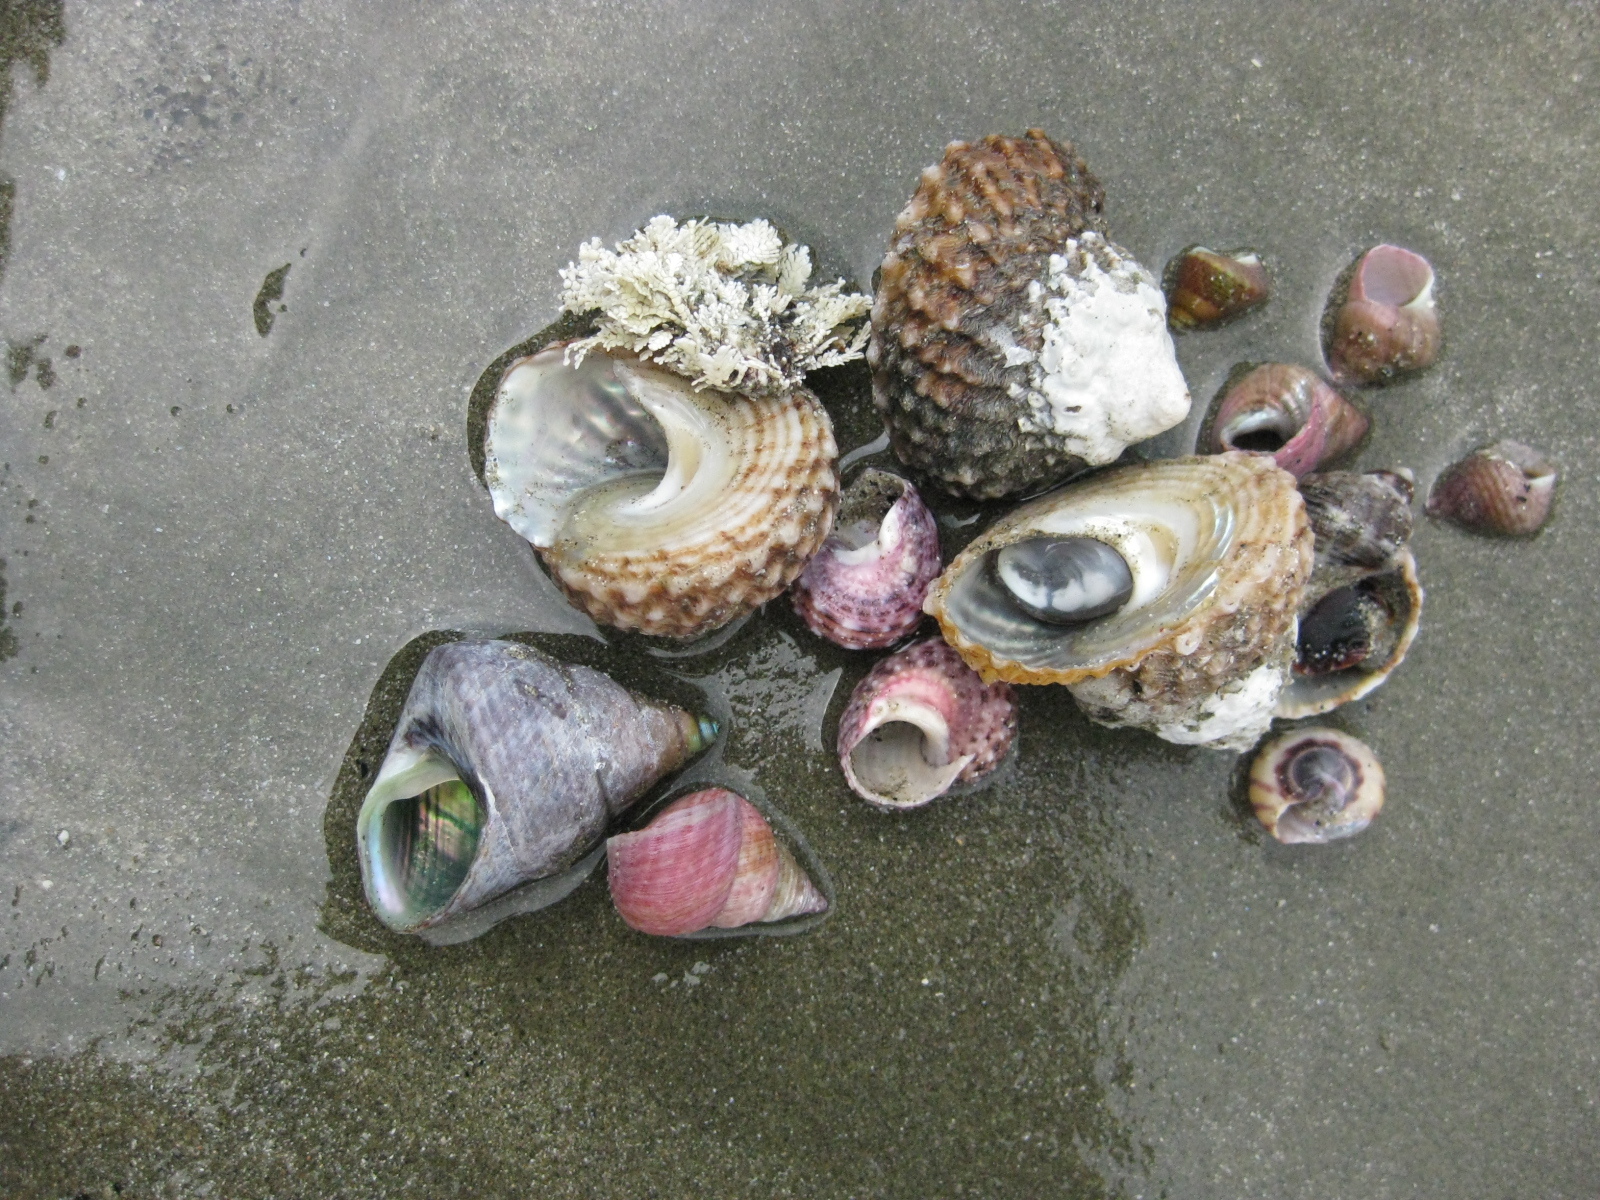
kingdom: Animalia
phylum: Mollusca
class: Gastropoda
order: Trochida
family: Turbinidae
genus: Modelia
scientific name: Modelia granosa
